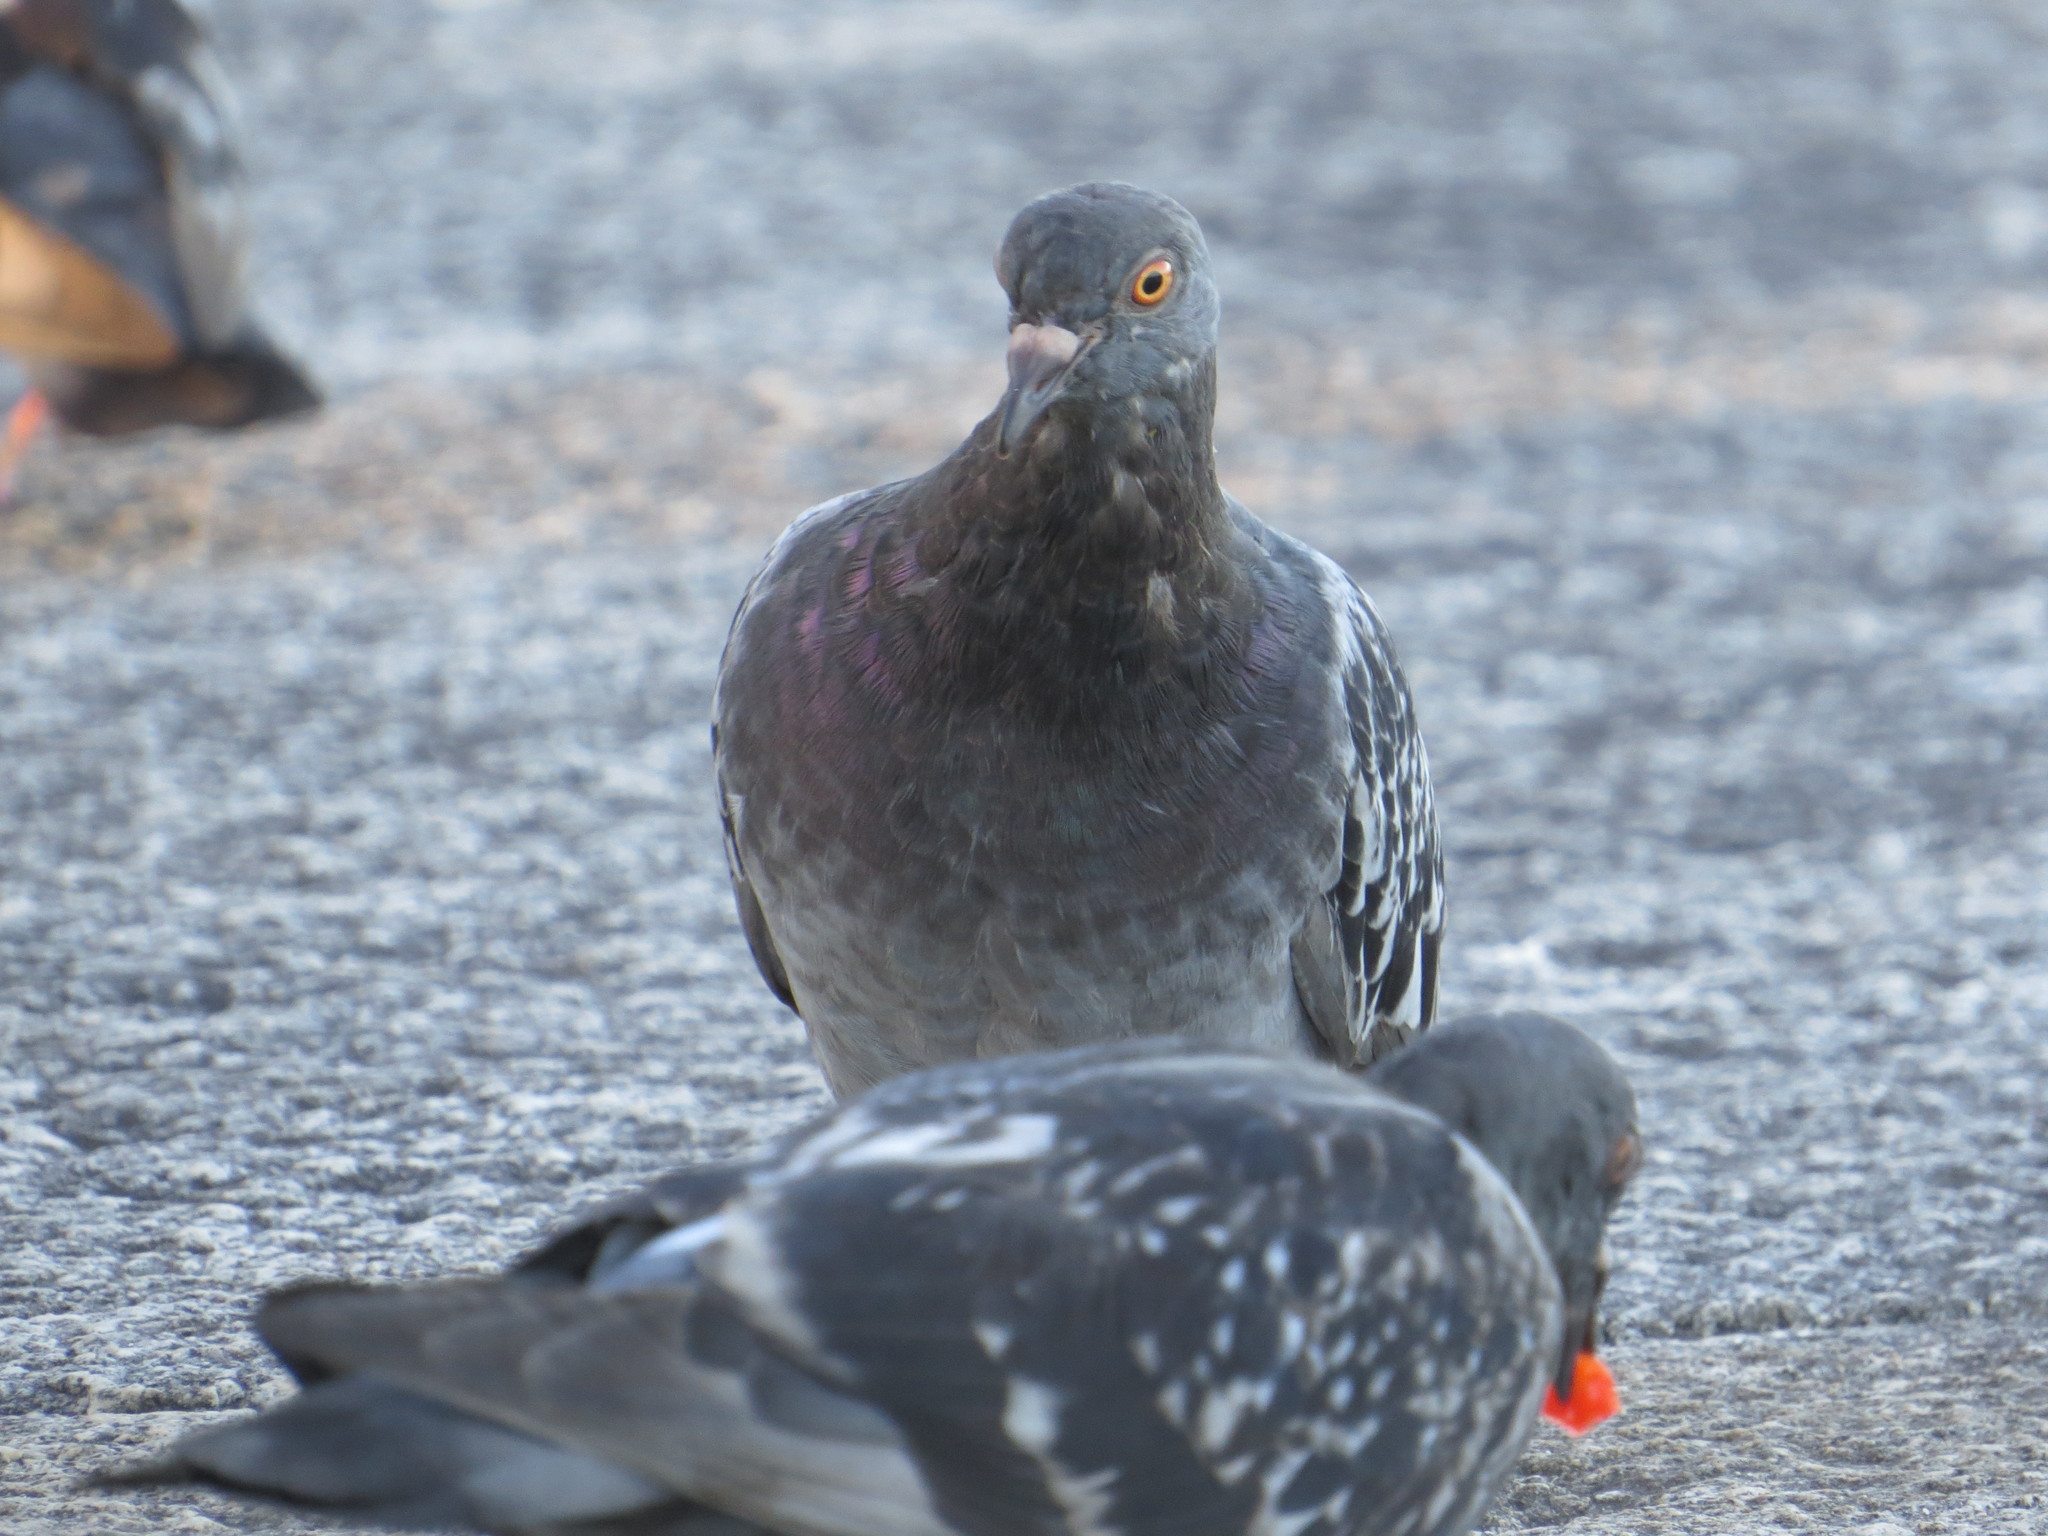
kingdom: Animalia
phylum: Chordata
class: Aves
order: Columbiformes
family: Columbidae
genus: Columba
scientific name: Columba livia
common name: Rock pigeon
